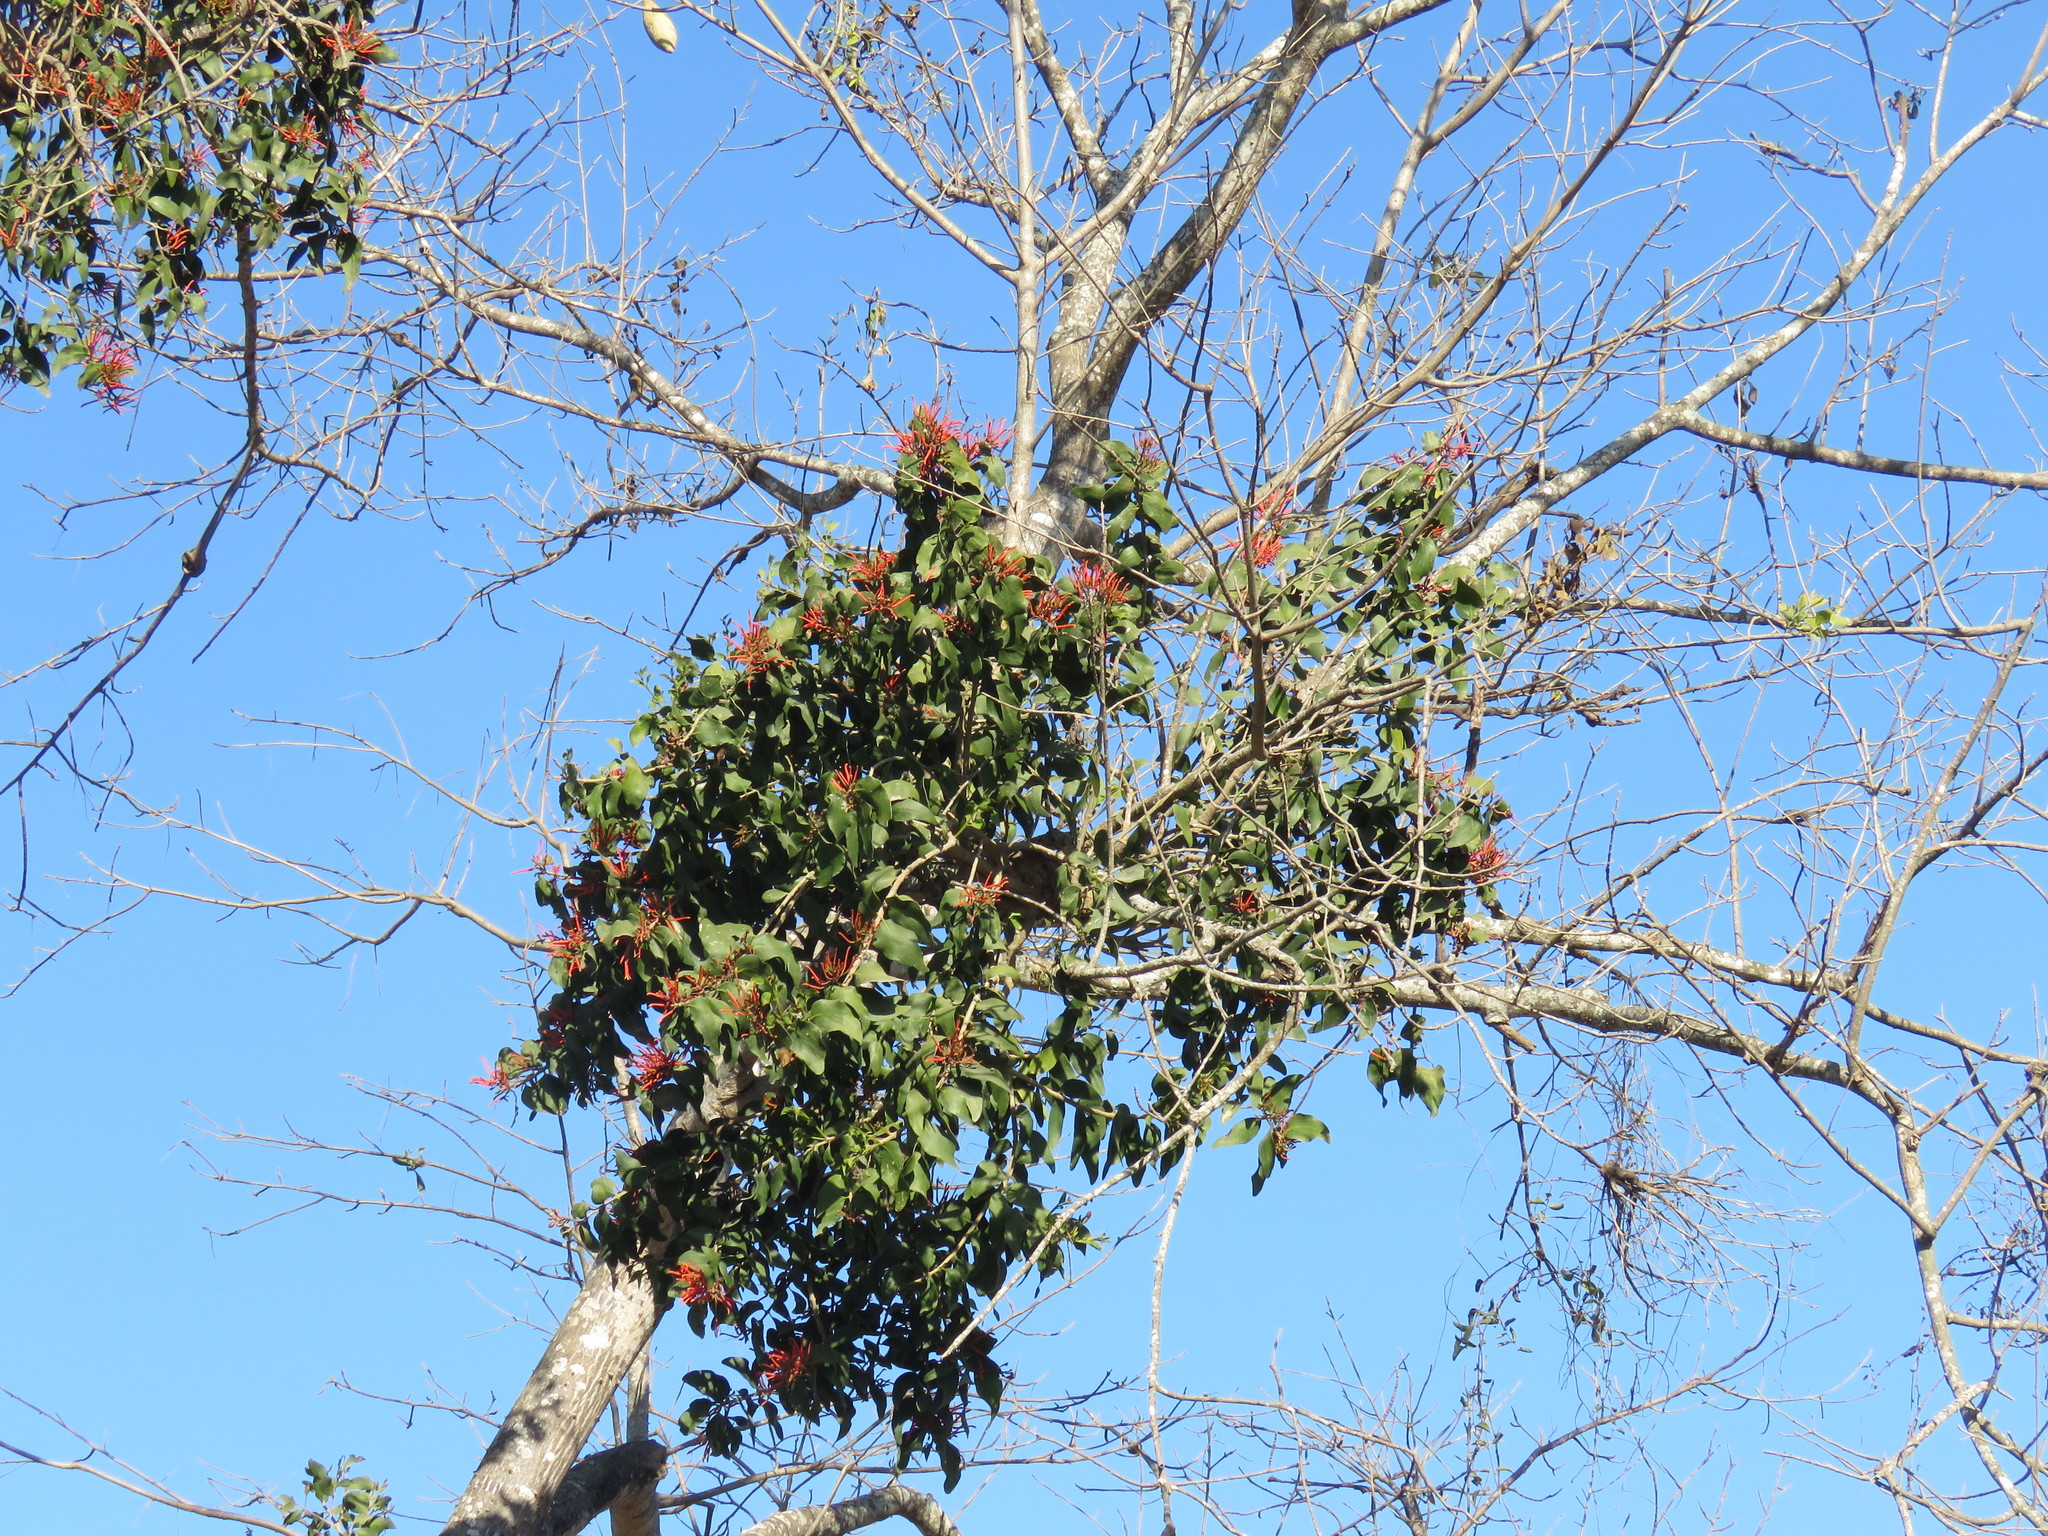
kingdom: Plantae
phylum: Tracheophyta
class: Magnoliopsida
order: Santalales
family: Loranthaceae
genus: Psittacanthus
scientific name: Psittacanthus schiedeanus
